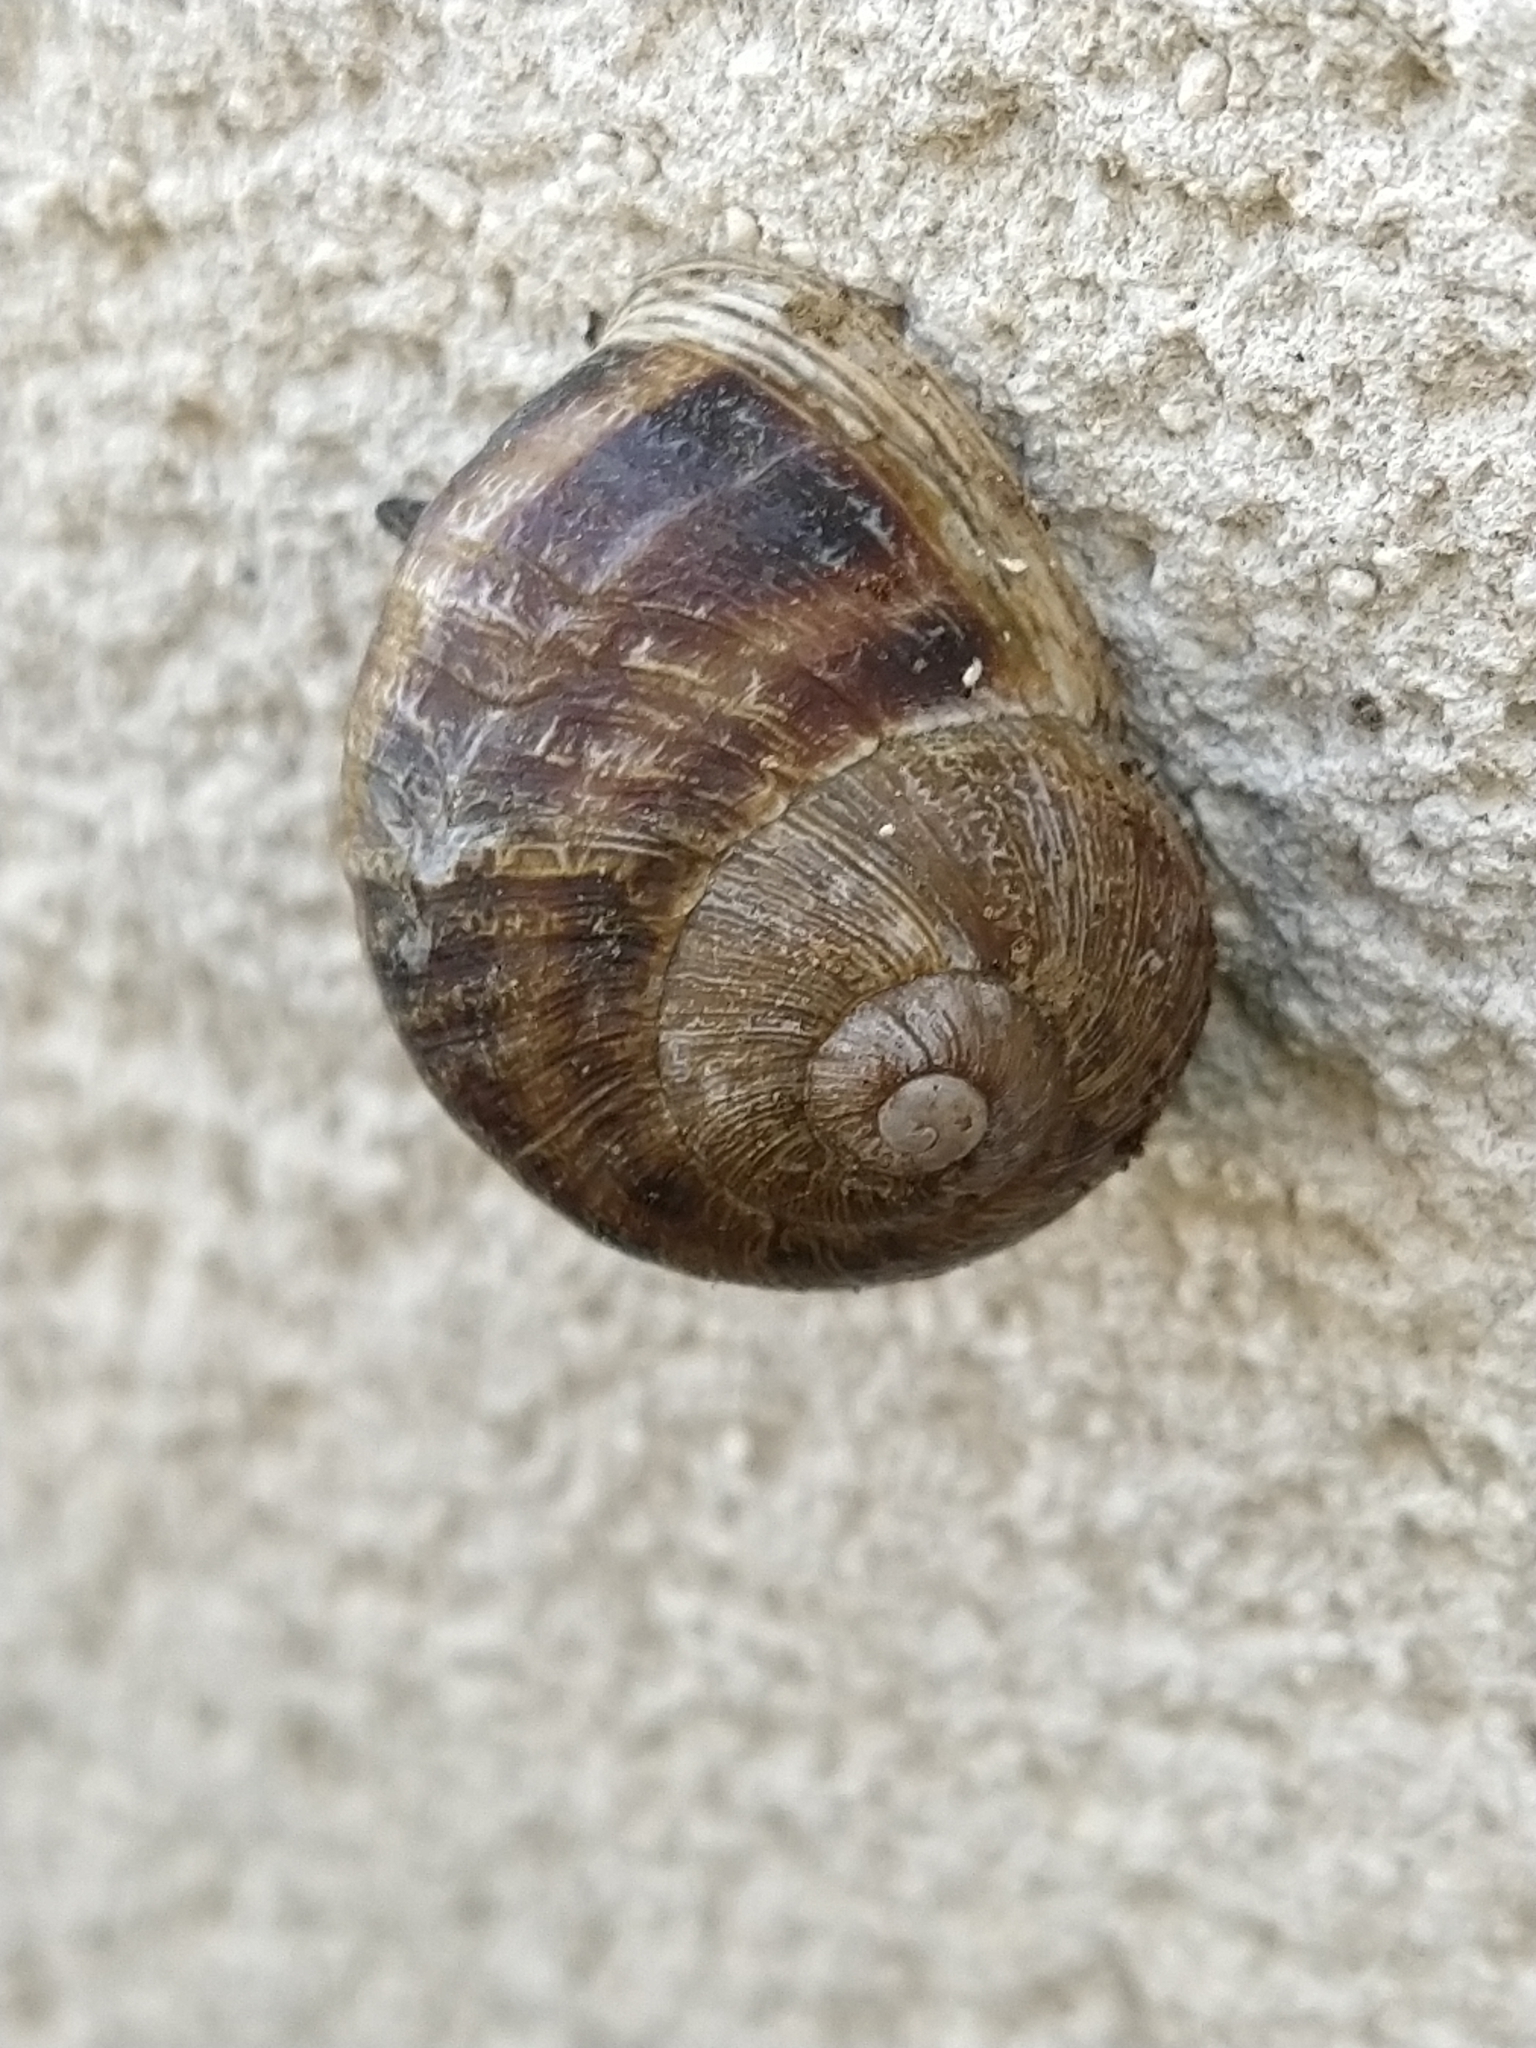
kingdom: Animalia
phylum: Mollusca
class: Gastropoda
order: Stylommatophora
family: Helicidae
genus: Cornu
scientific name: Cornu aspersum
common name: Brown garden snail
